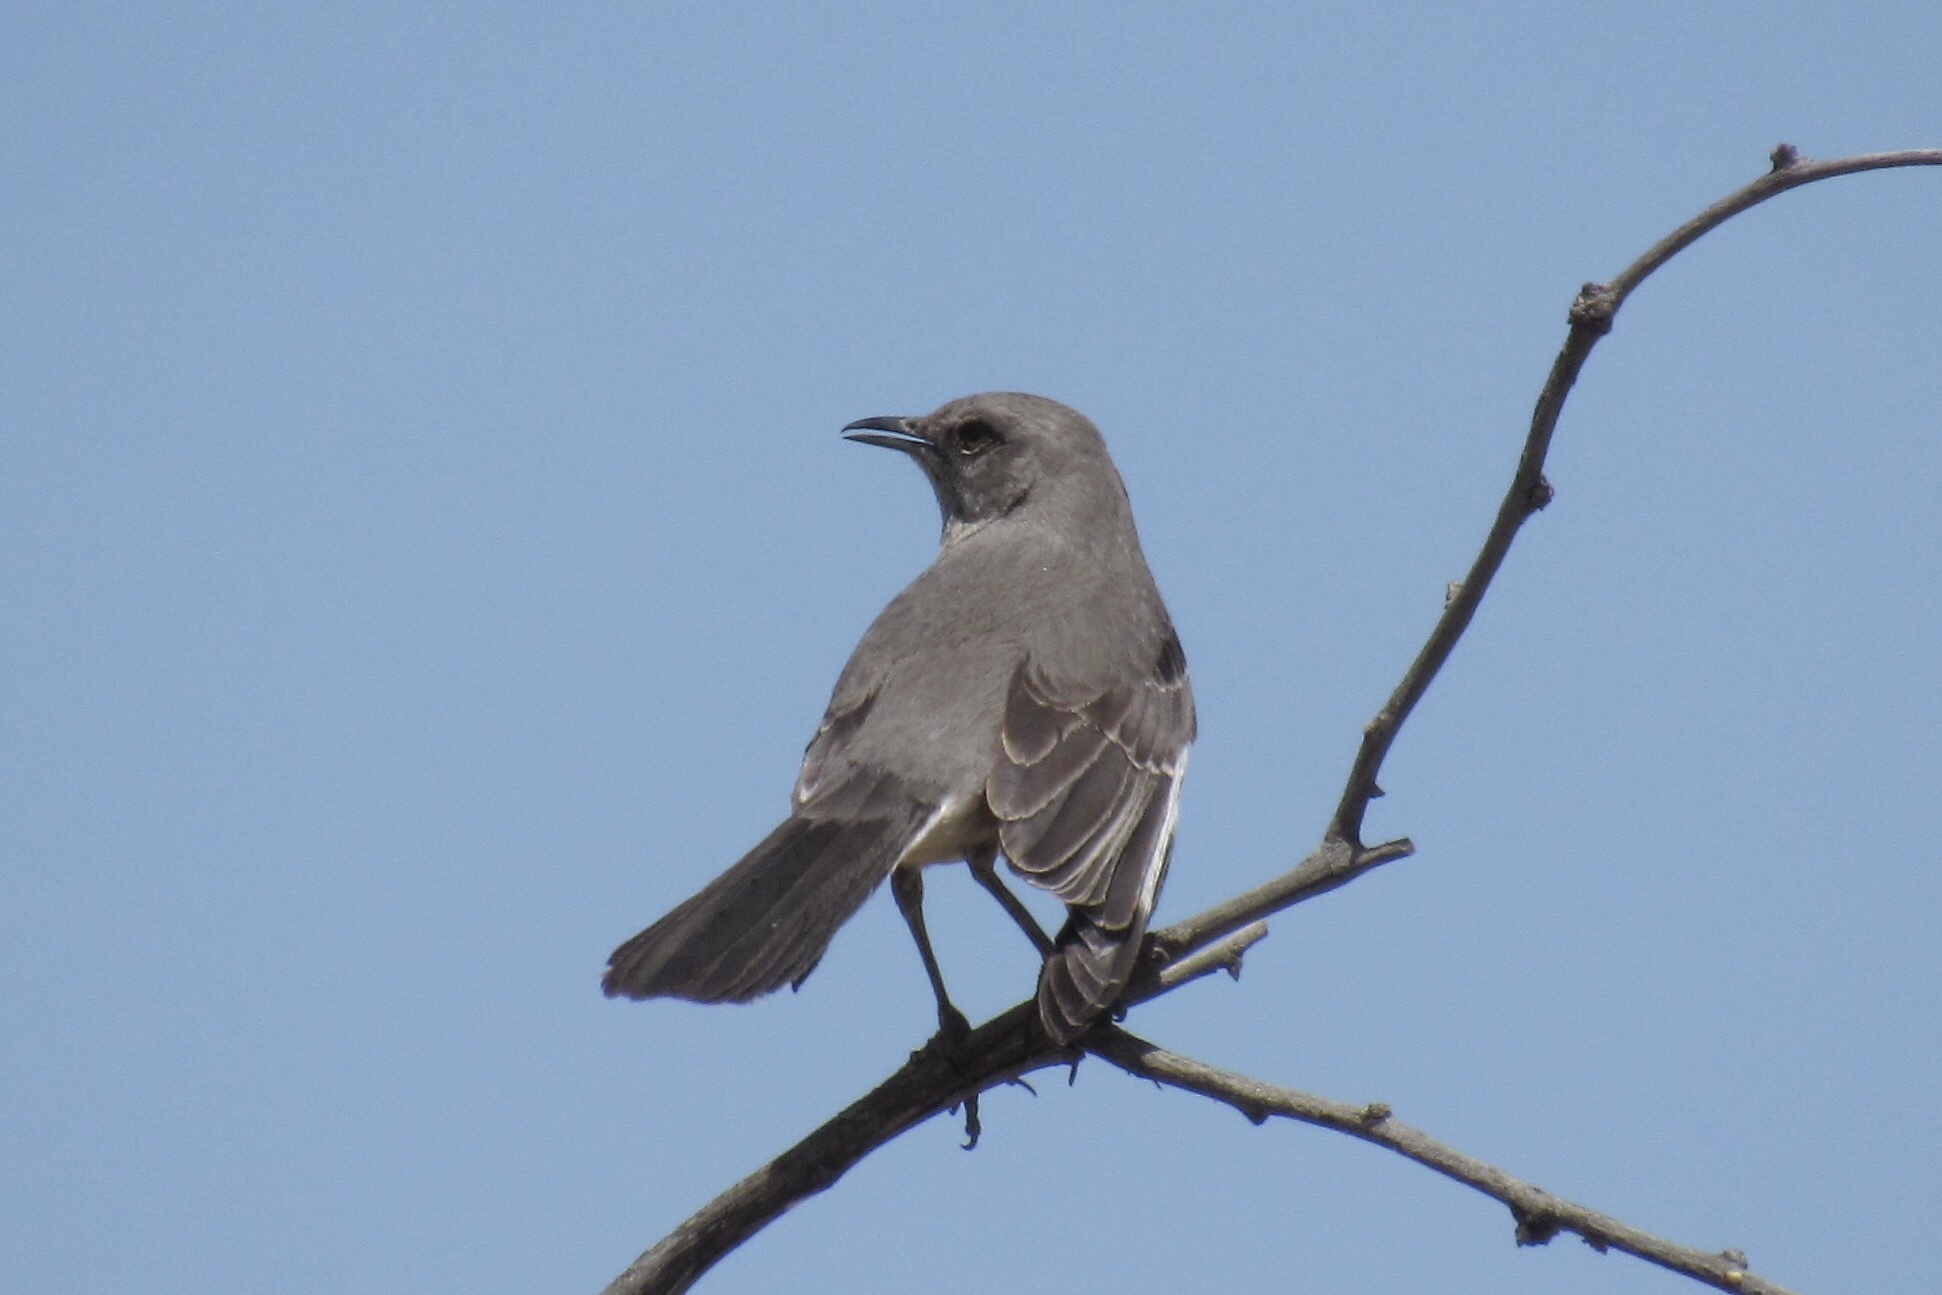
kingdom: Animalia
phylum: Chordata
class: Aves
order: Passeriformes
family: Mimidae
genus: Mimus
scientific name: Mimus polyglottos
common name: Northern mockingbird
